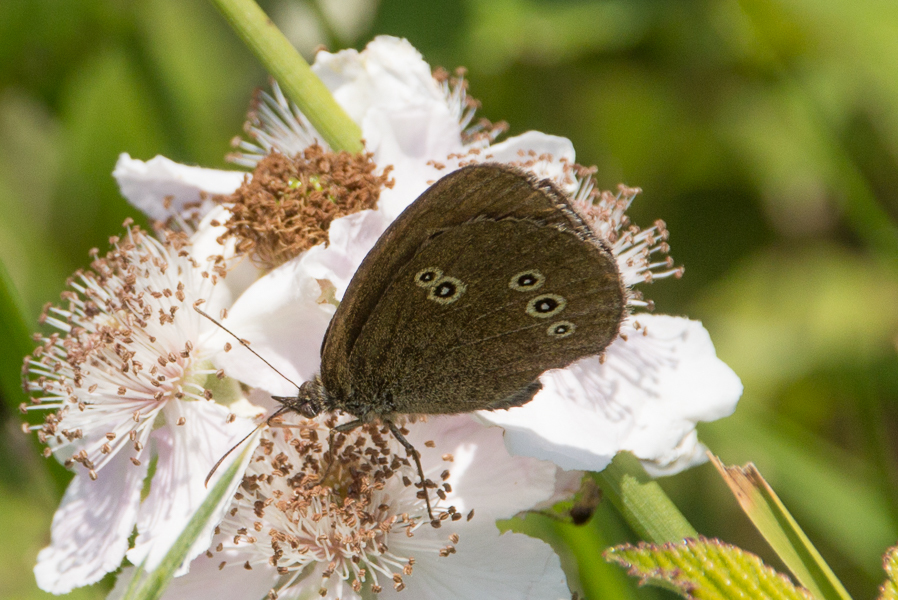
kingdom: Animalia
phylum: Arthropoda
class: Insecta
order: Lepidoptera
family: Nymphalidae
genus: Aphantopus
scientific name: Aphantopus hyperantus
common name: Ringlet
